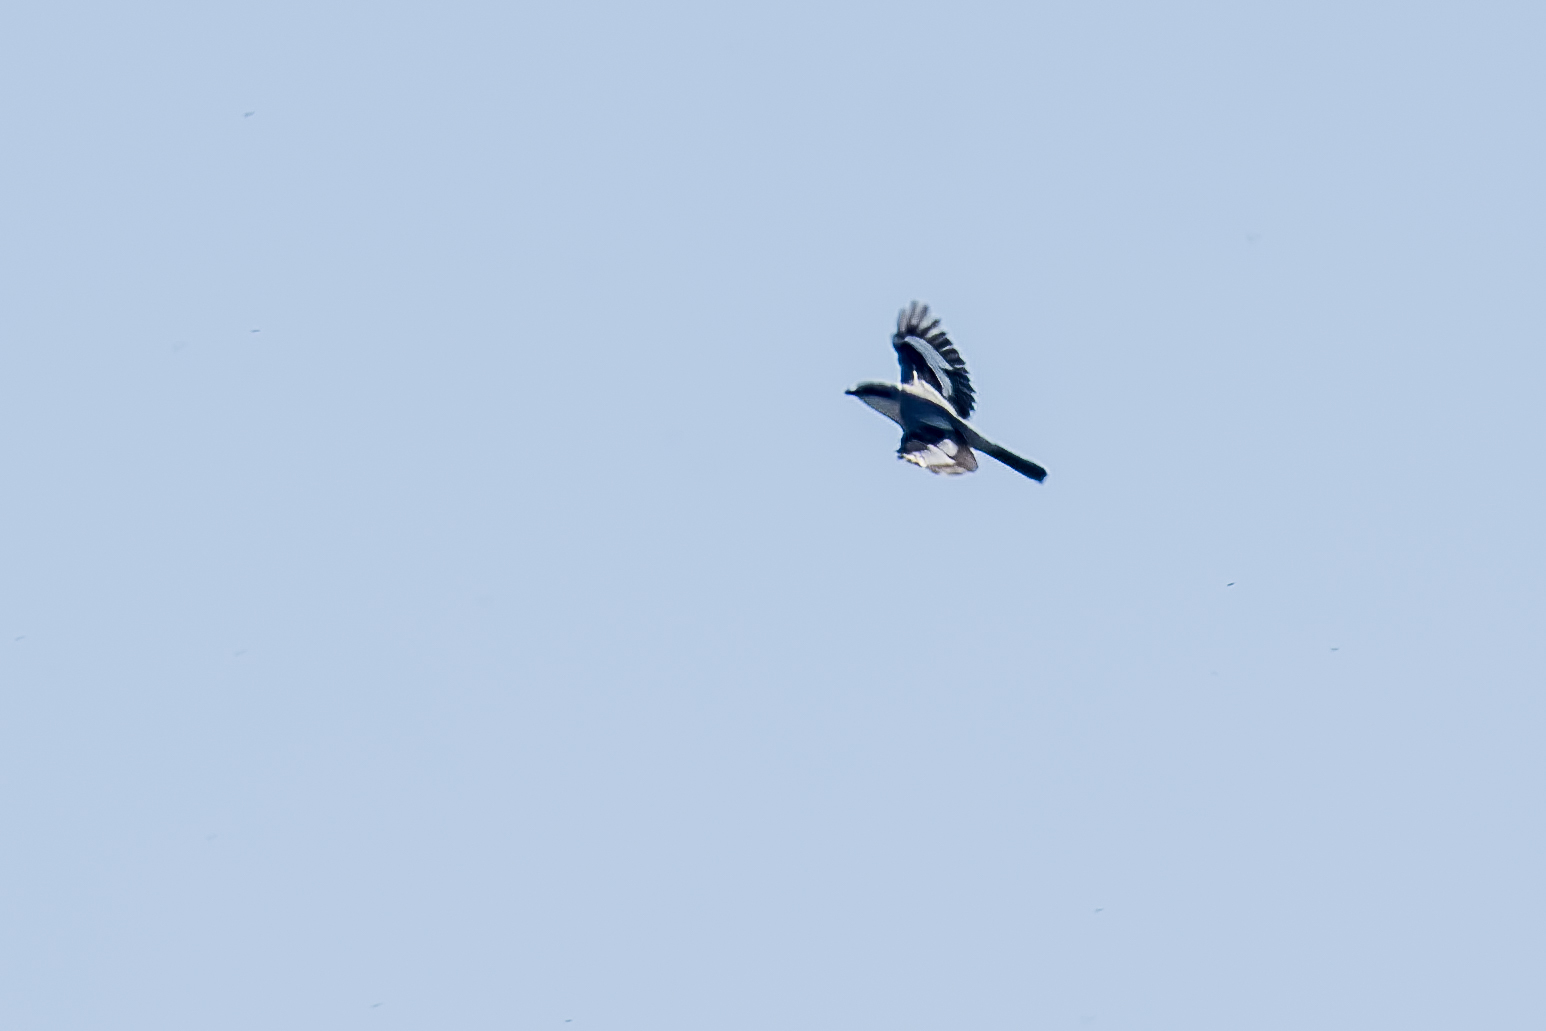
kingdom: Animalia
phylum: Chordata
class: Aves
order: Passeriformes
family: Laniidae
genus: Lanius
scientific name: Lanius excubitor
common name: Great grey shrike
